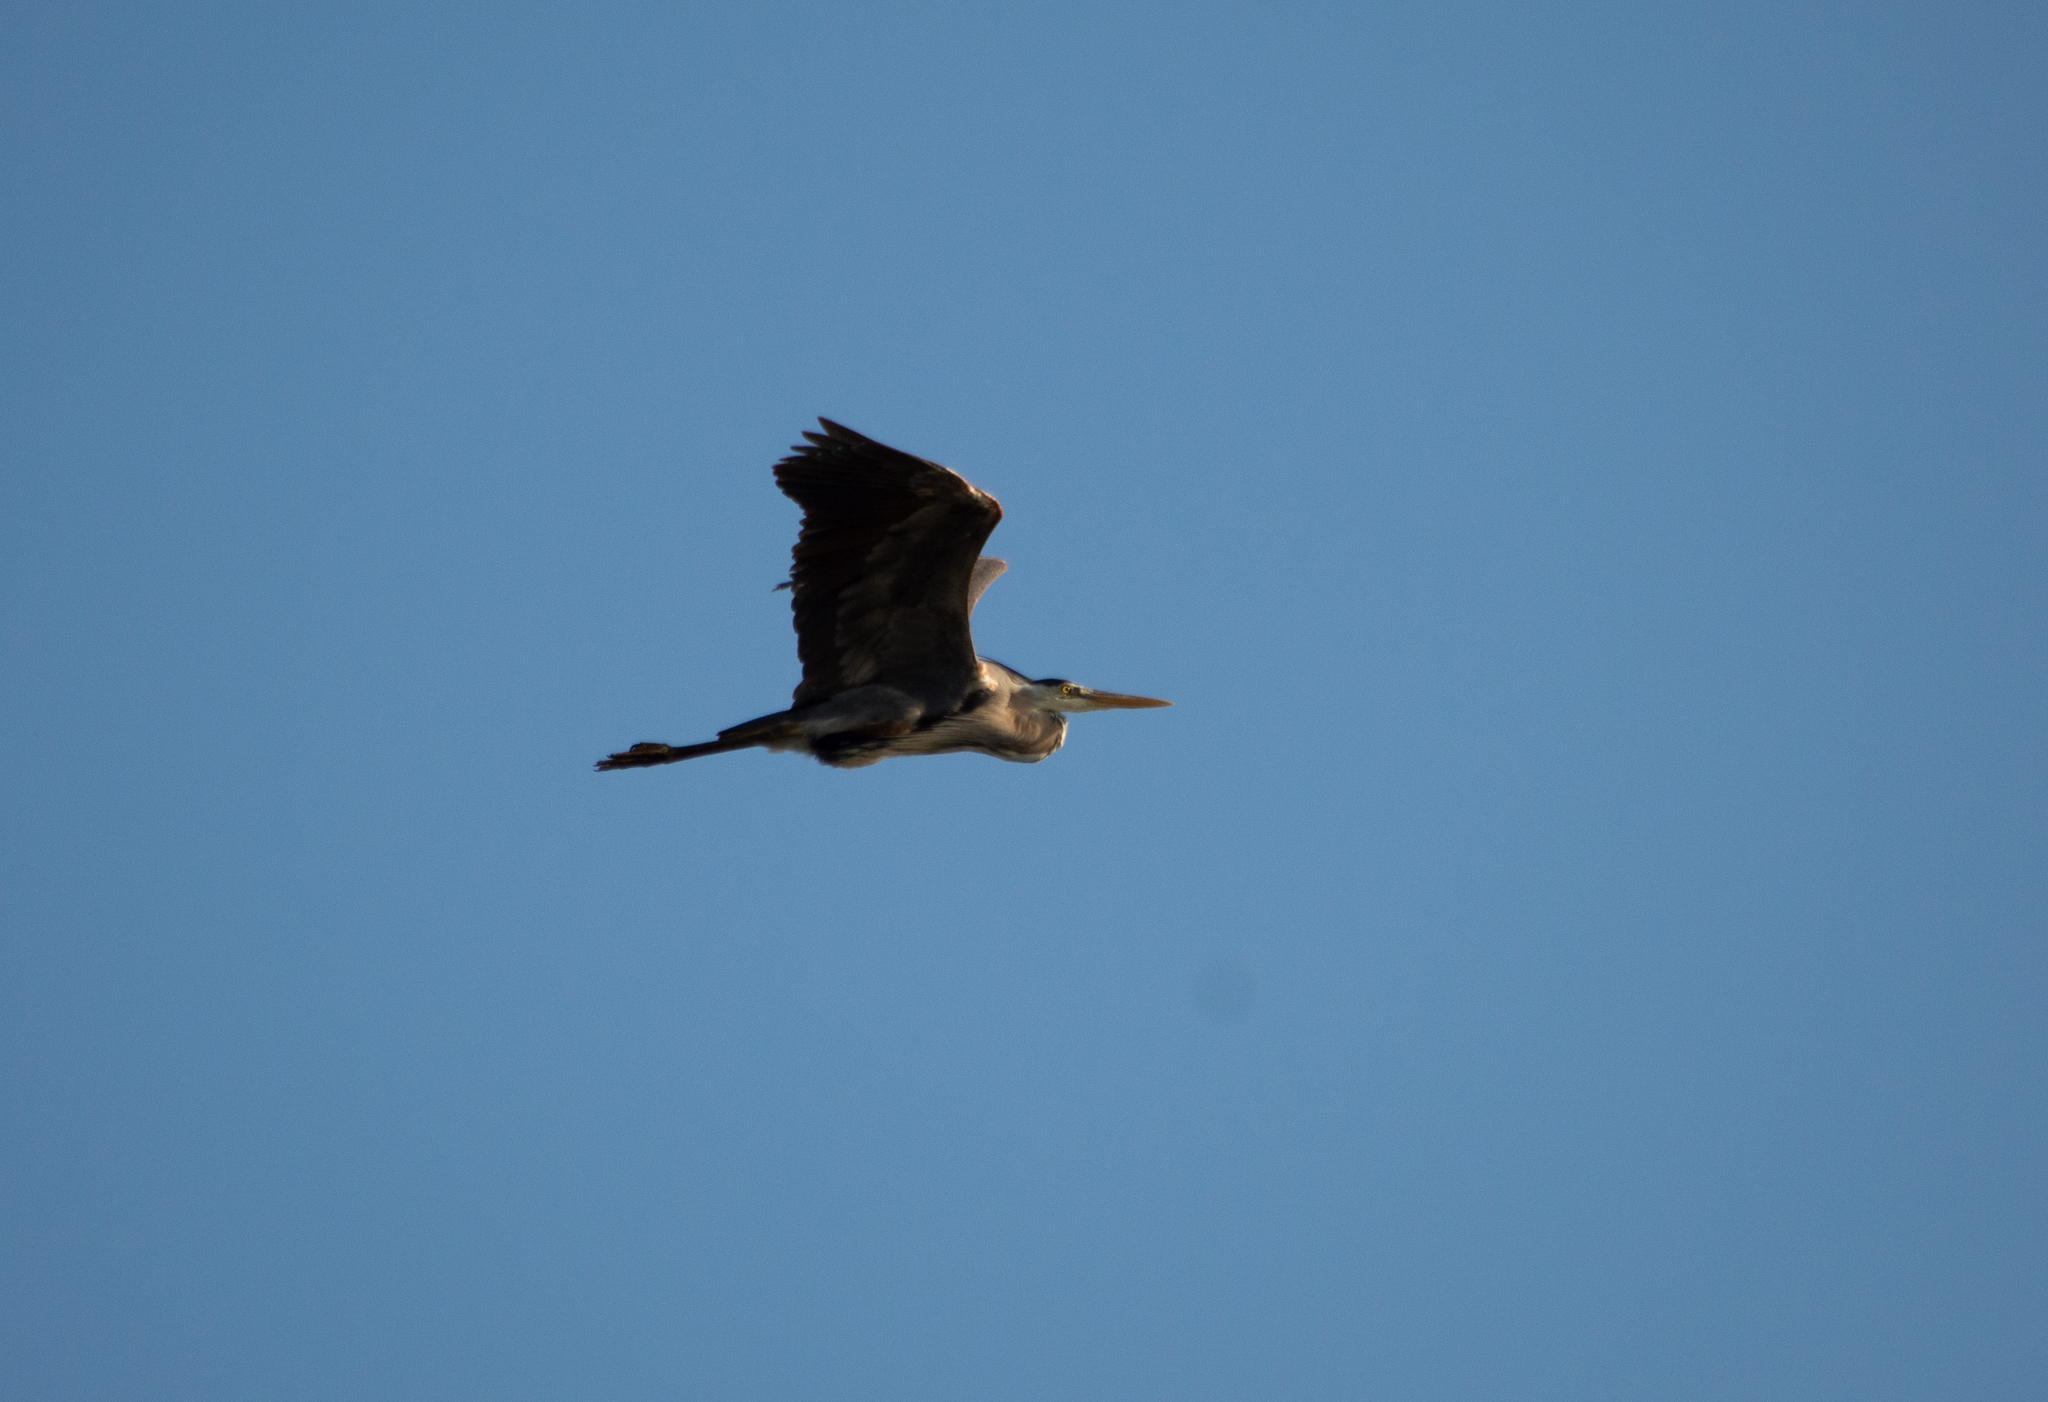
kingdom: Animalia
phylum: Chordata
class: Aves
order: Pelecaniformes
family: Ardeidae
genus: Ardea
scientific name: Ardea herodias
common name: Great blue heron
